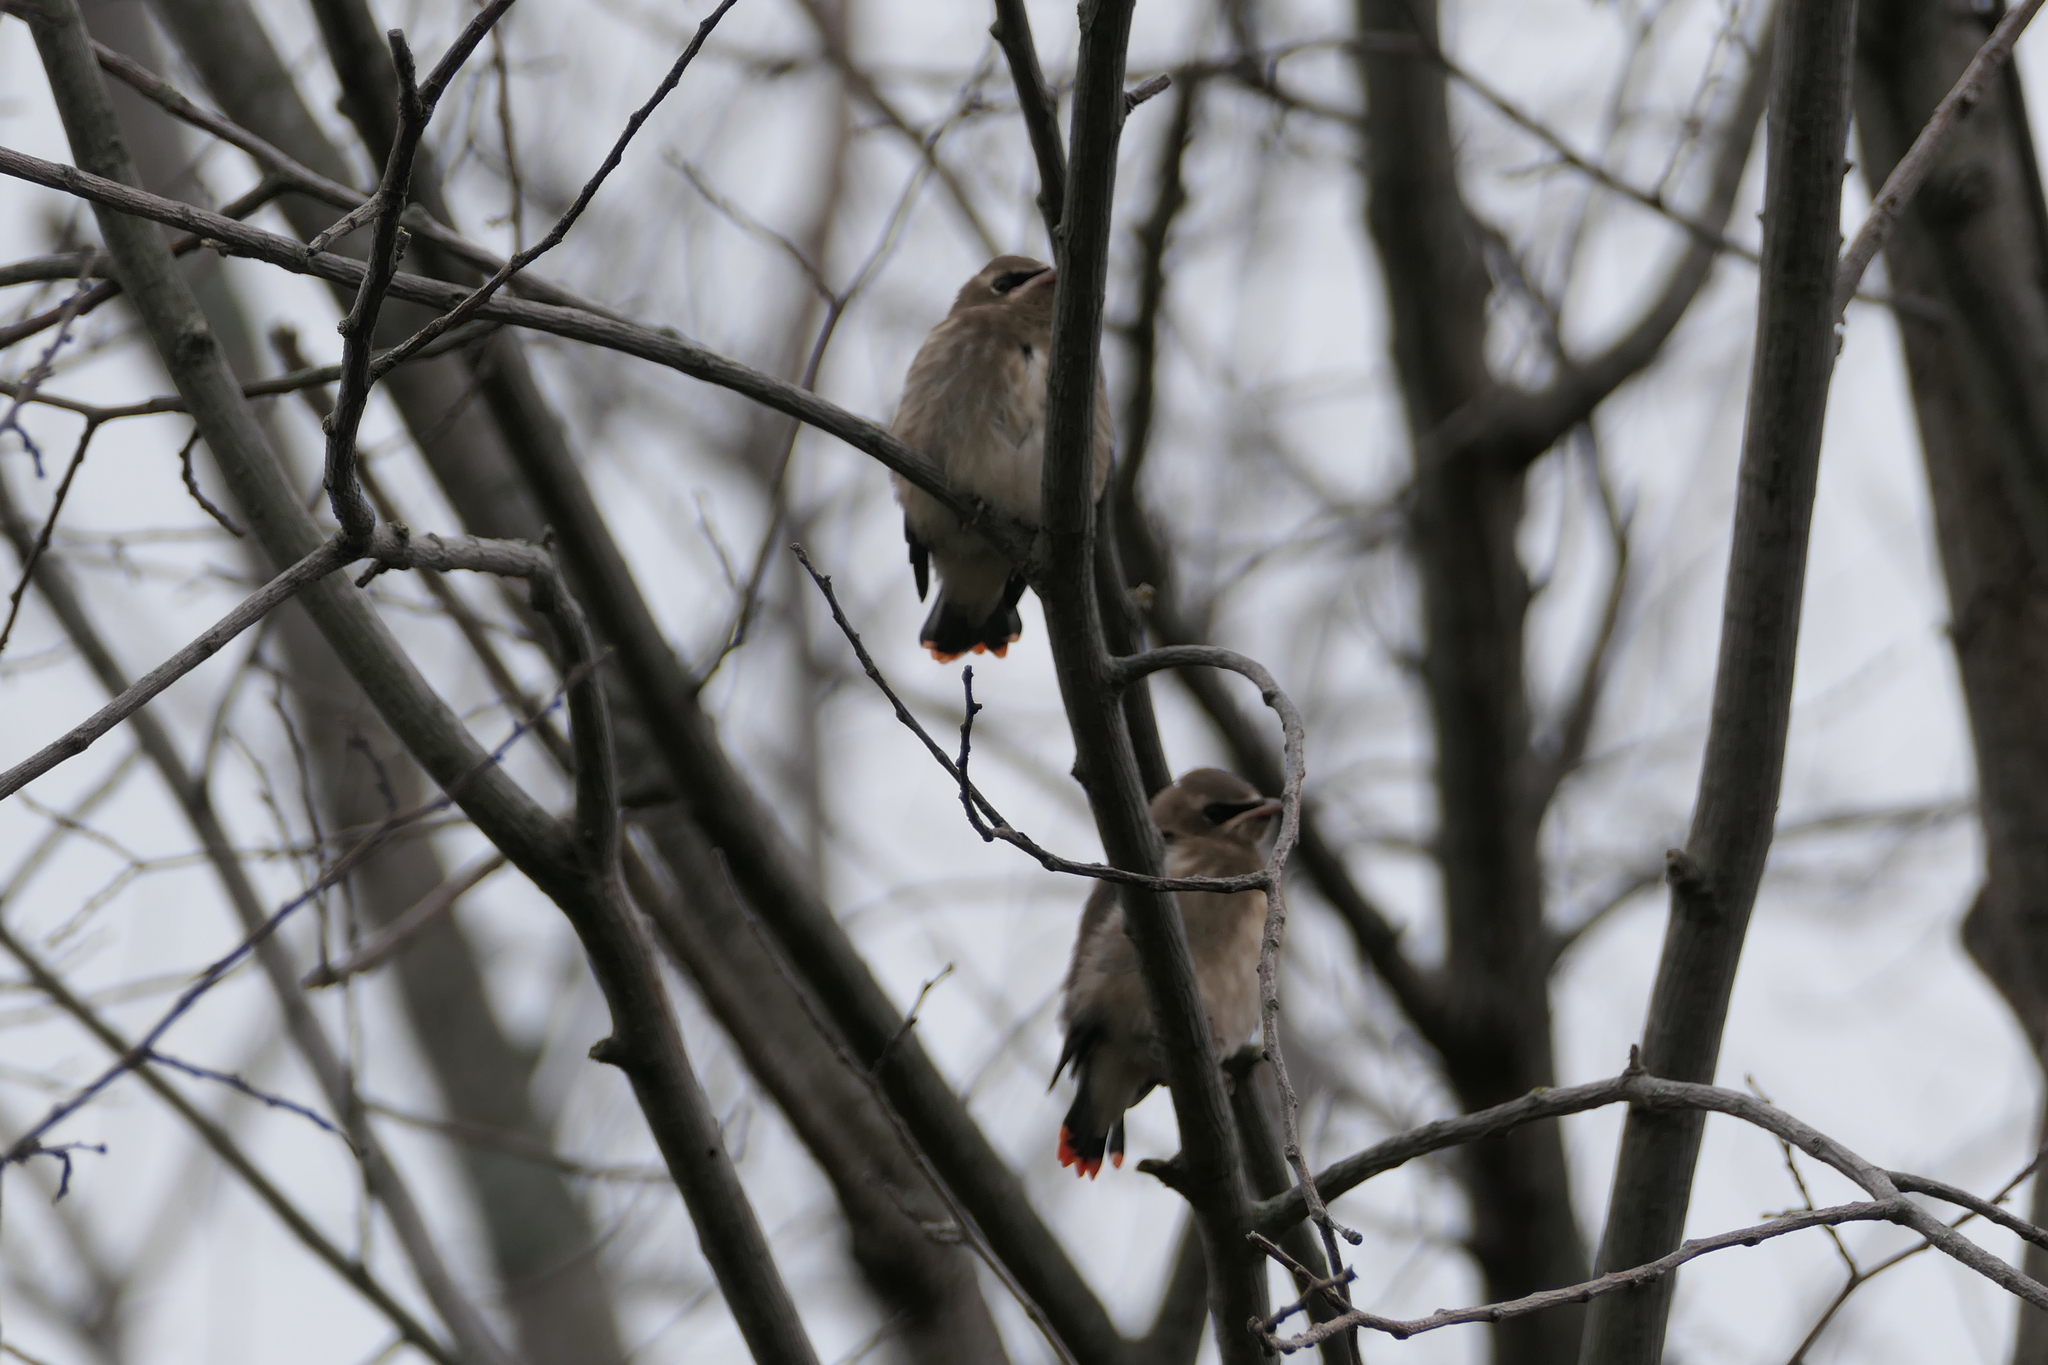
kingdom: Animalia
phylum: Chordata
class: Aves
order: Passeriformes
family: Bombycillidae
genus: Bombycilla
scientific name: Bombycilla cedrorum
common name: Cedar waxwing
